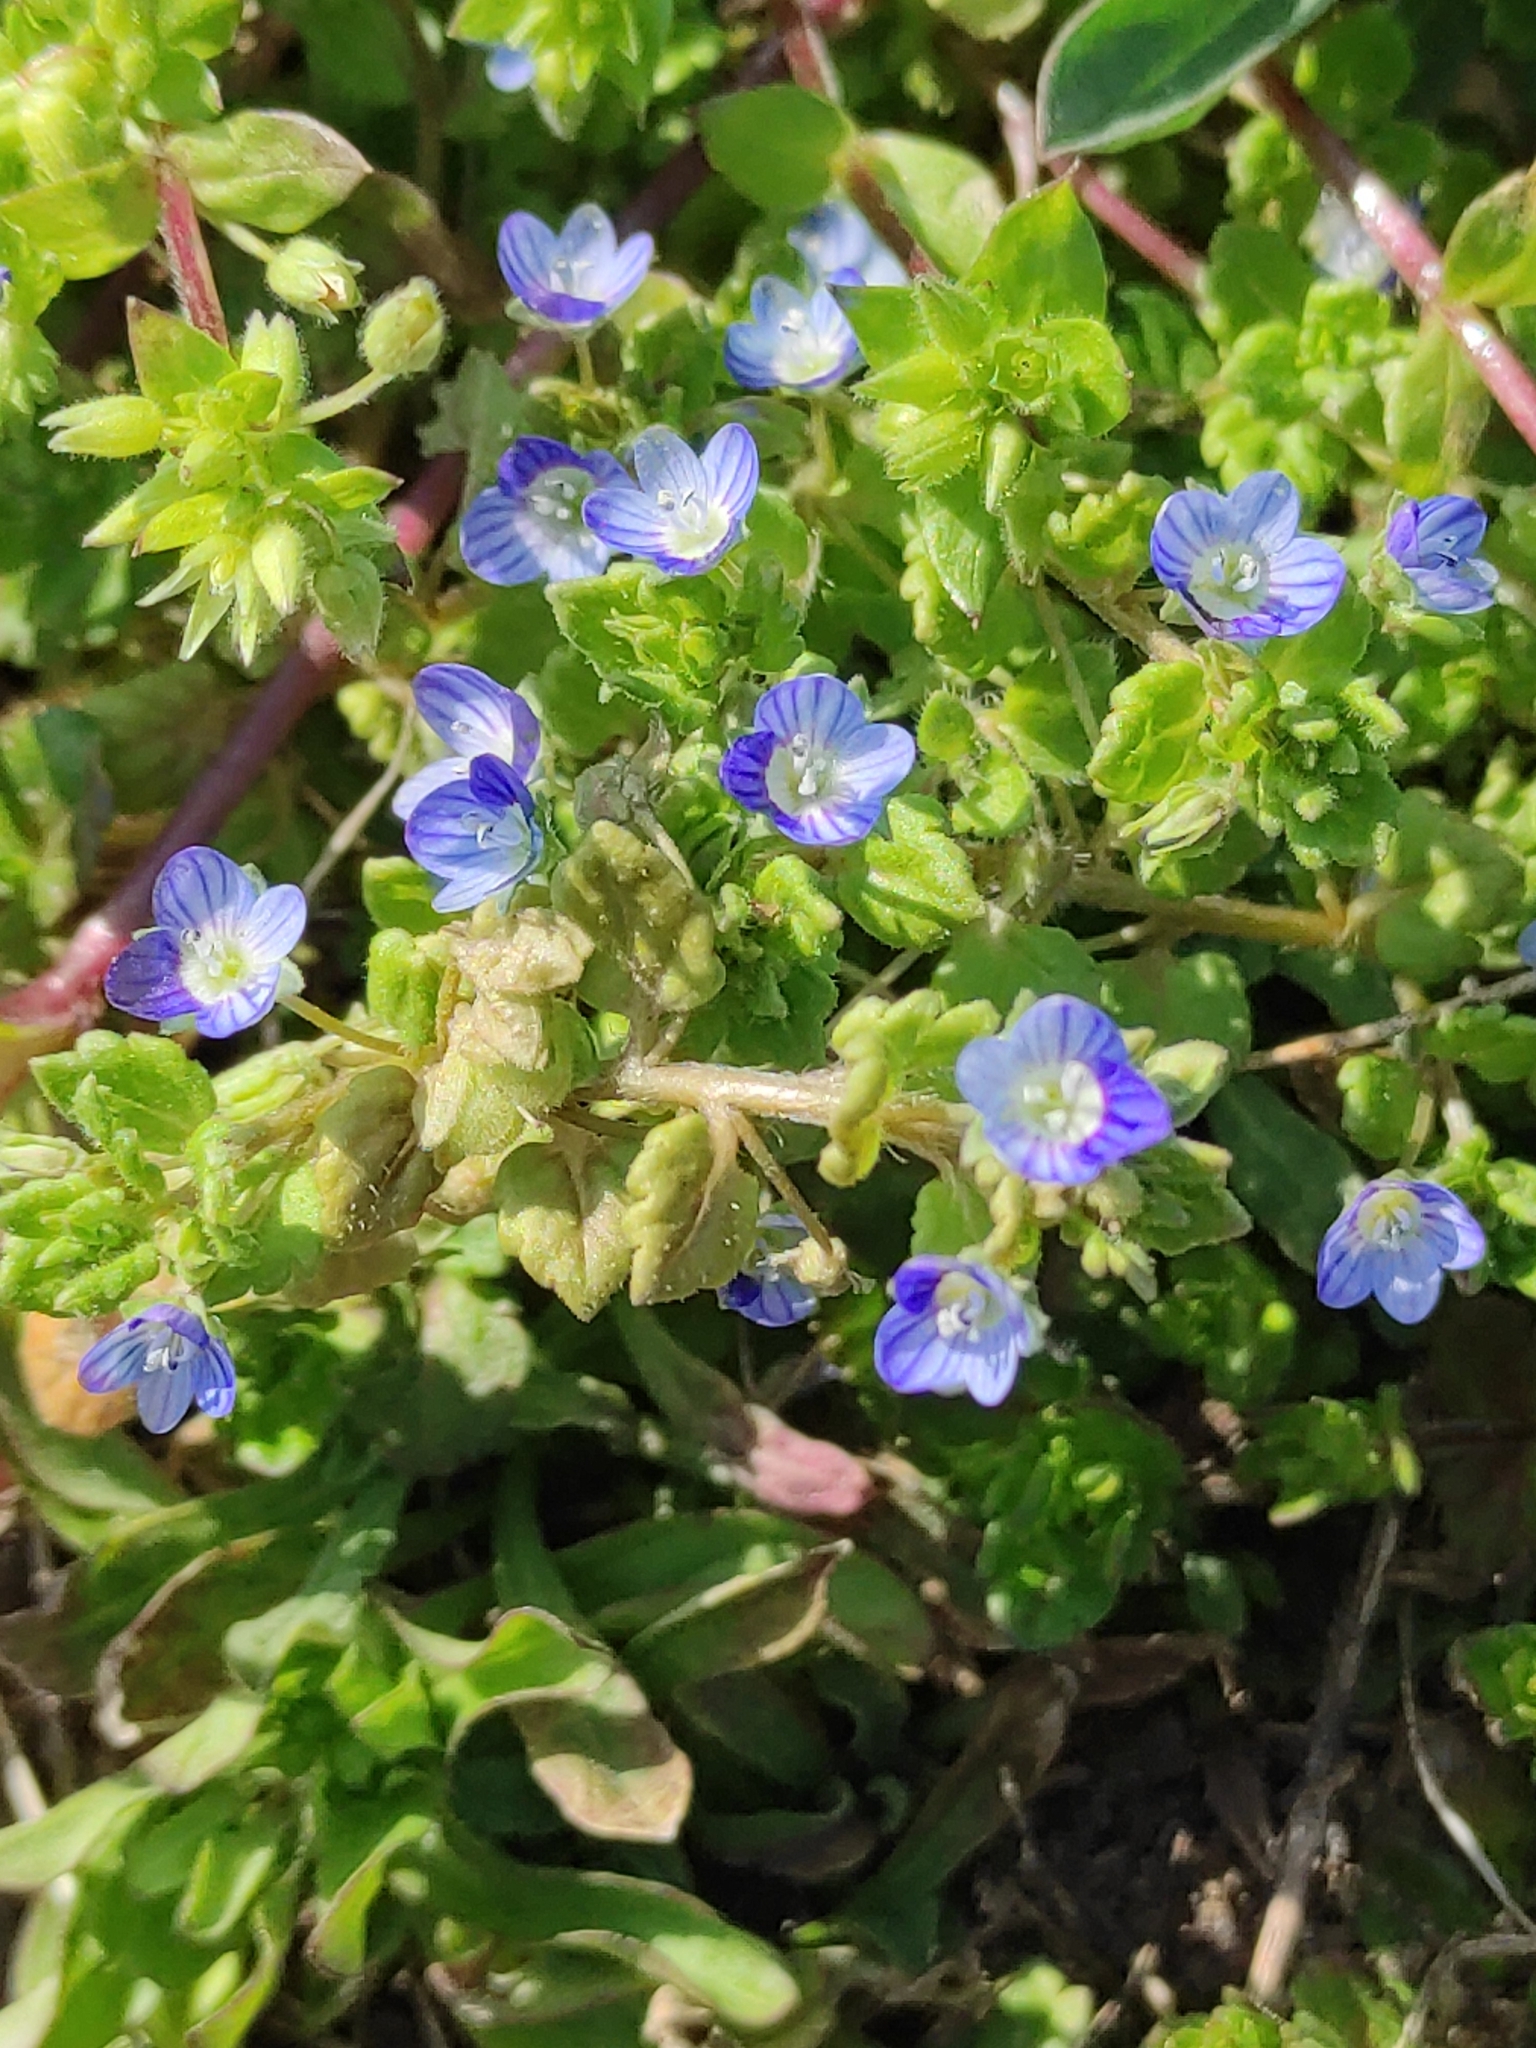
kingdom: Plantae
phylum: Tracheophyta
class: Magnoliopsida
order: Lamiales
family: Plantaginaceae
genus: Veronica
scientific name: Veronica polita
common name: Grey field-speedwell
